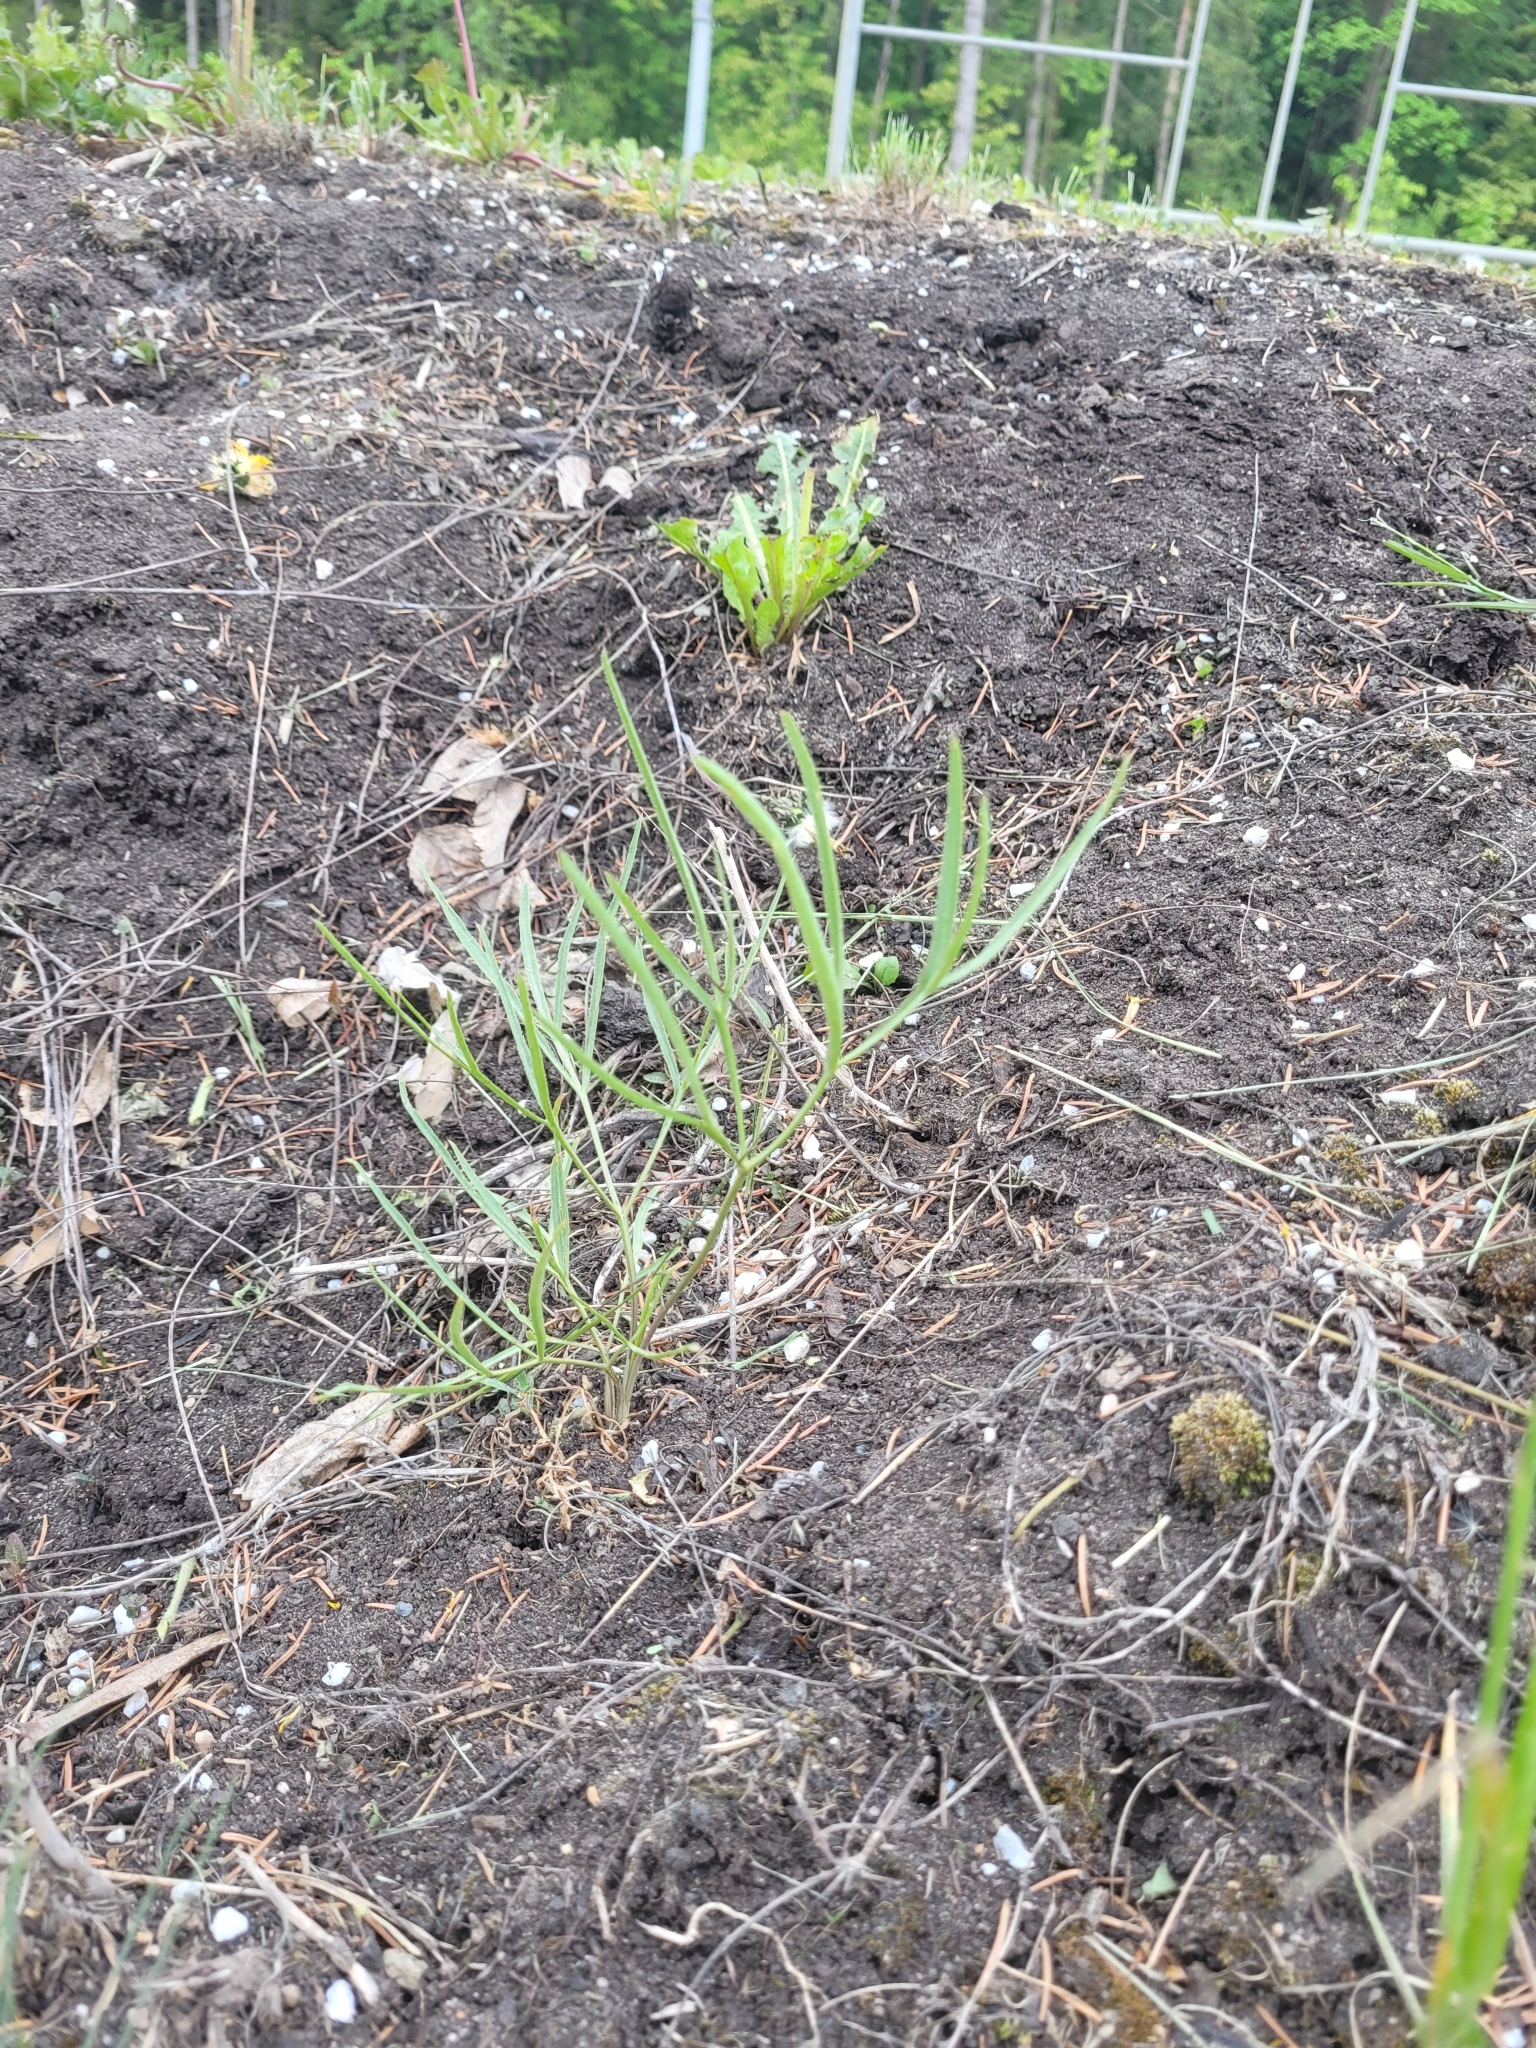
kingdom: Plantae
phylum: Tracheophyta
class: Magnoliopsida
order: Apiales
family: Apiaceae
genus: Falcaria
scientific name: Falcaria vulgaris
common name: Longleaf
